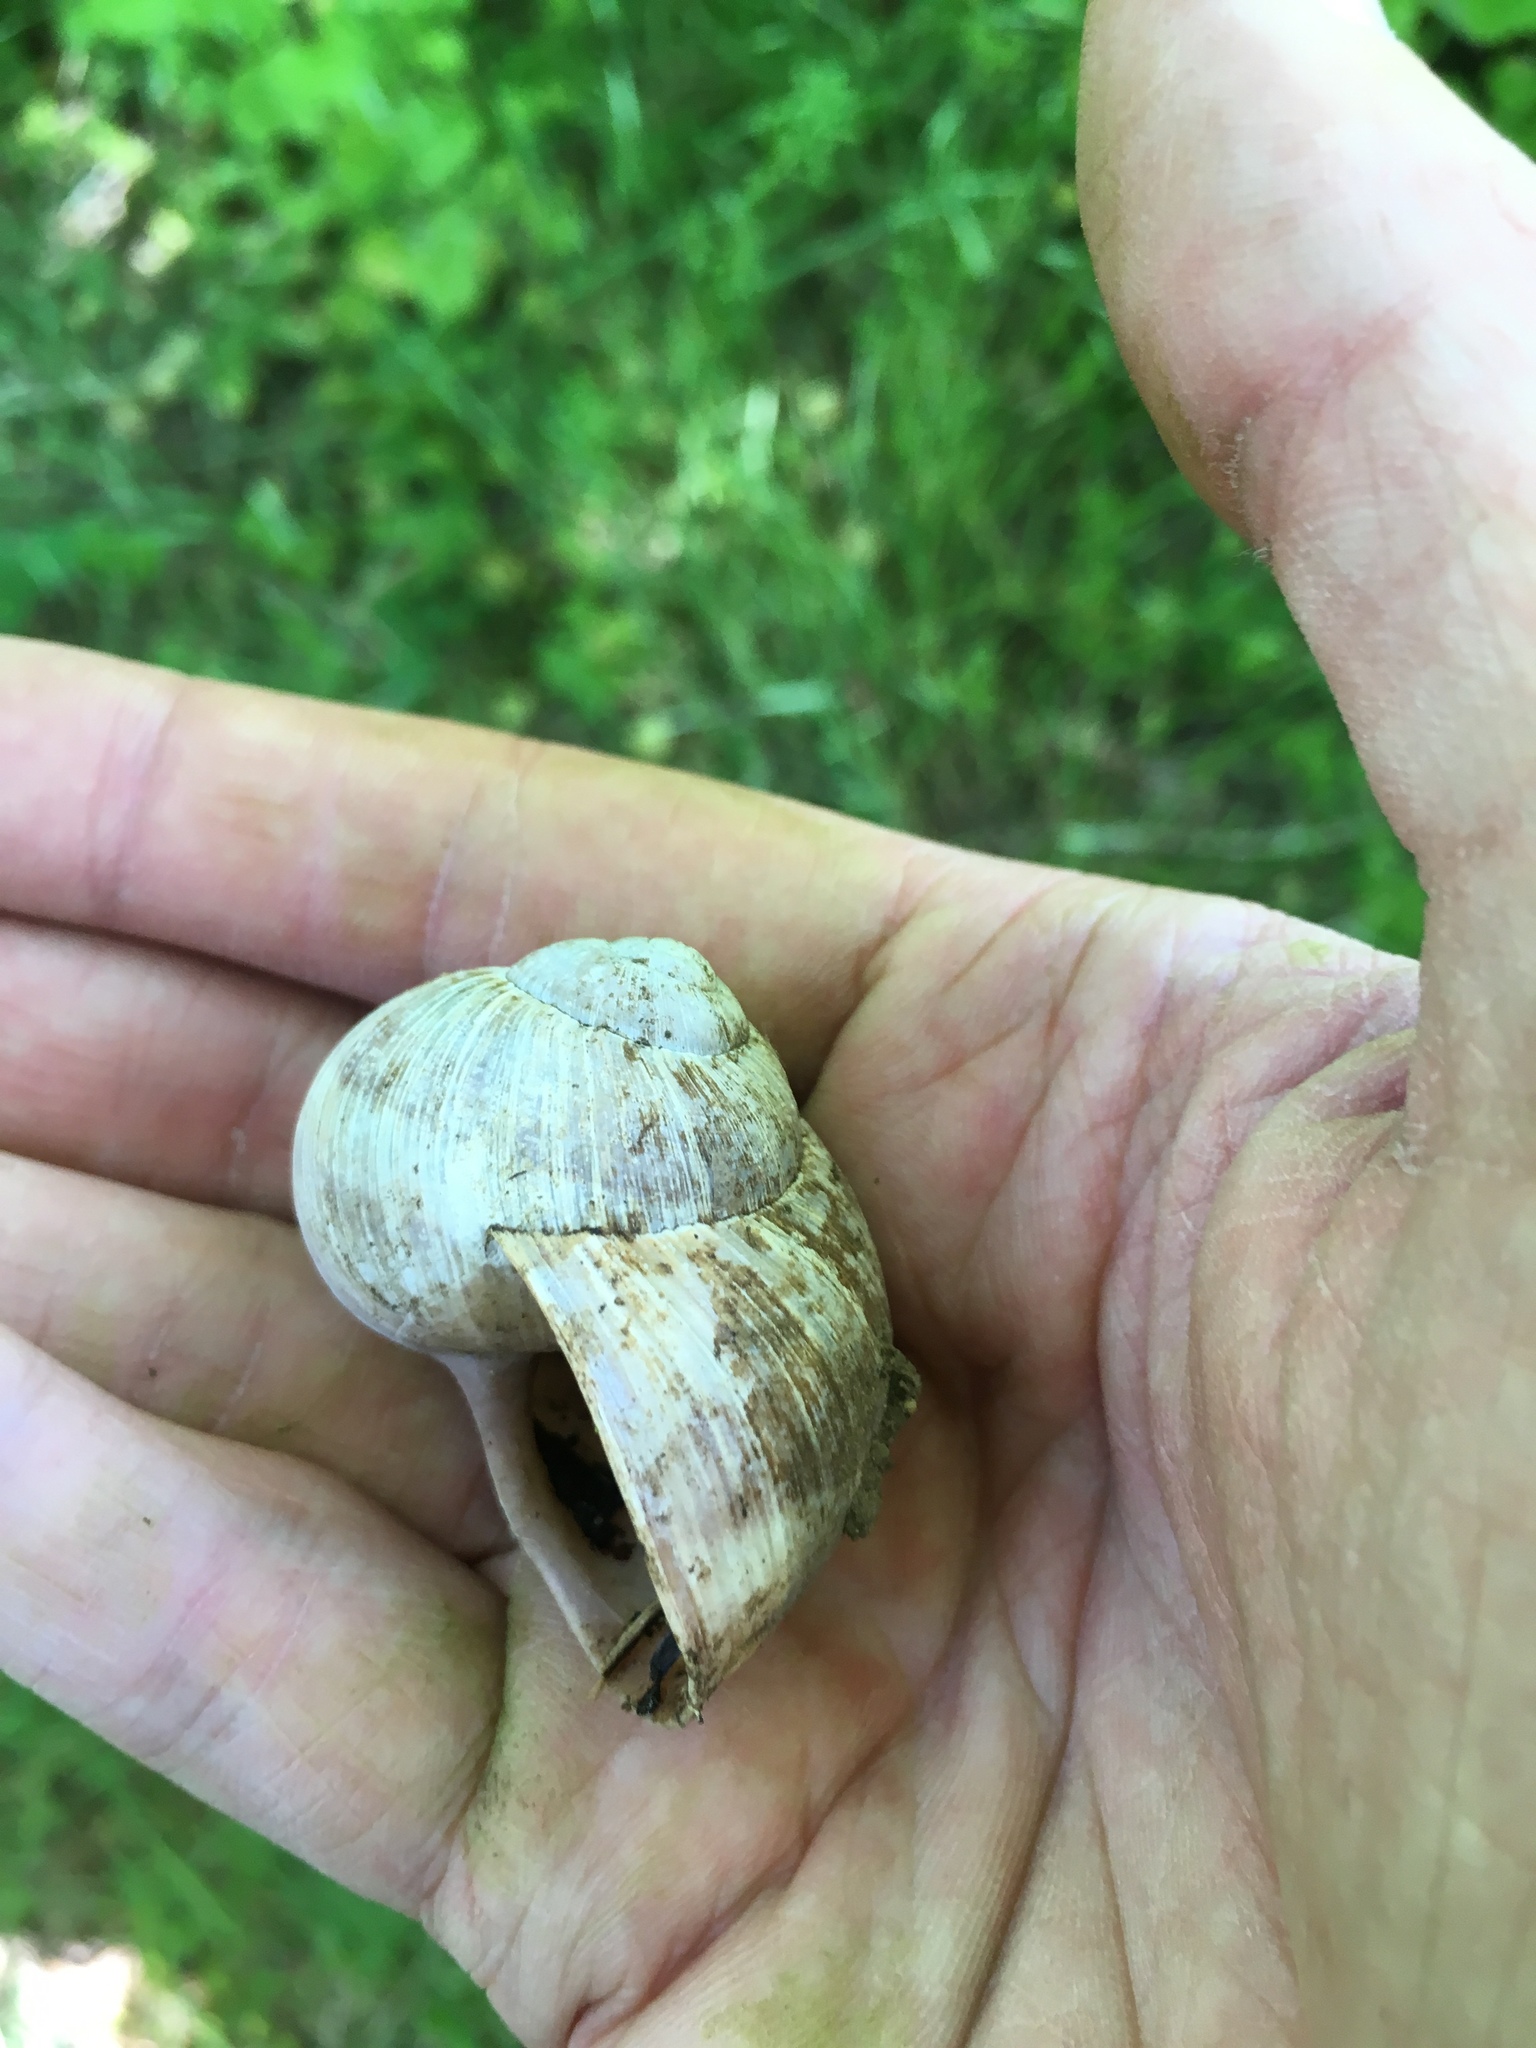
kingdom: Animalia
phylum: Mollusca
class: Gastropoda
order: Stylommatophora
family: Helicidae
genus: Helix
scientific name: Helix pomatia
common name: Roman snail
